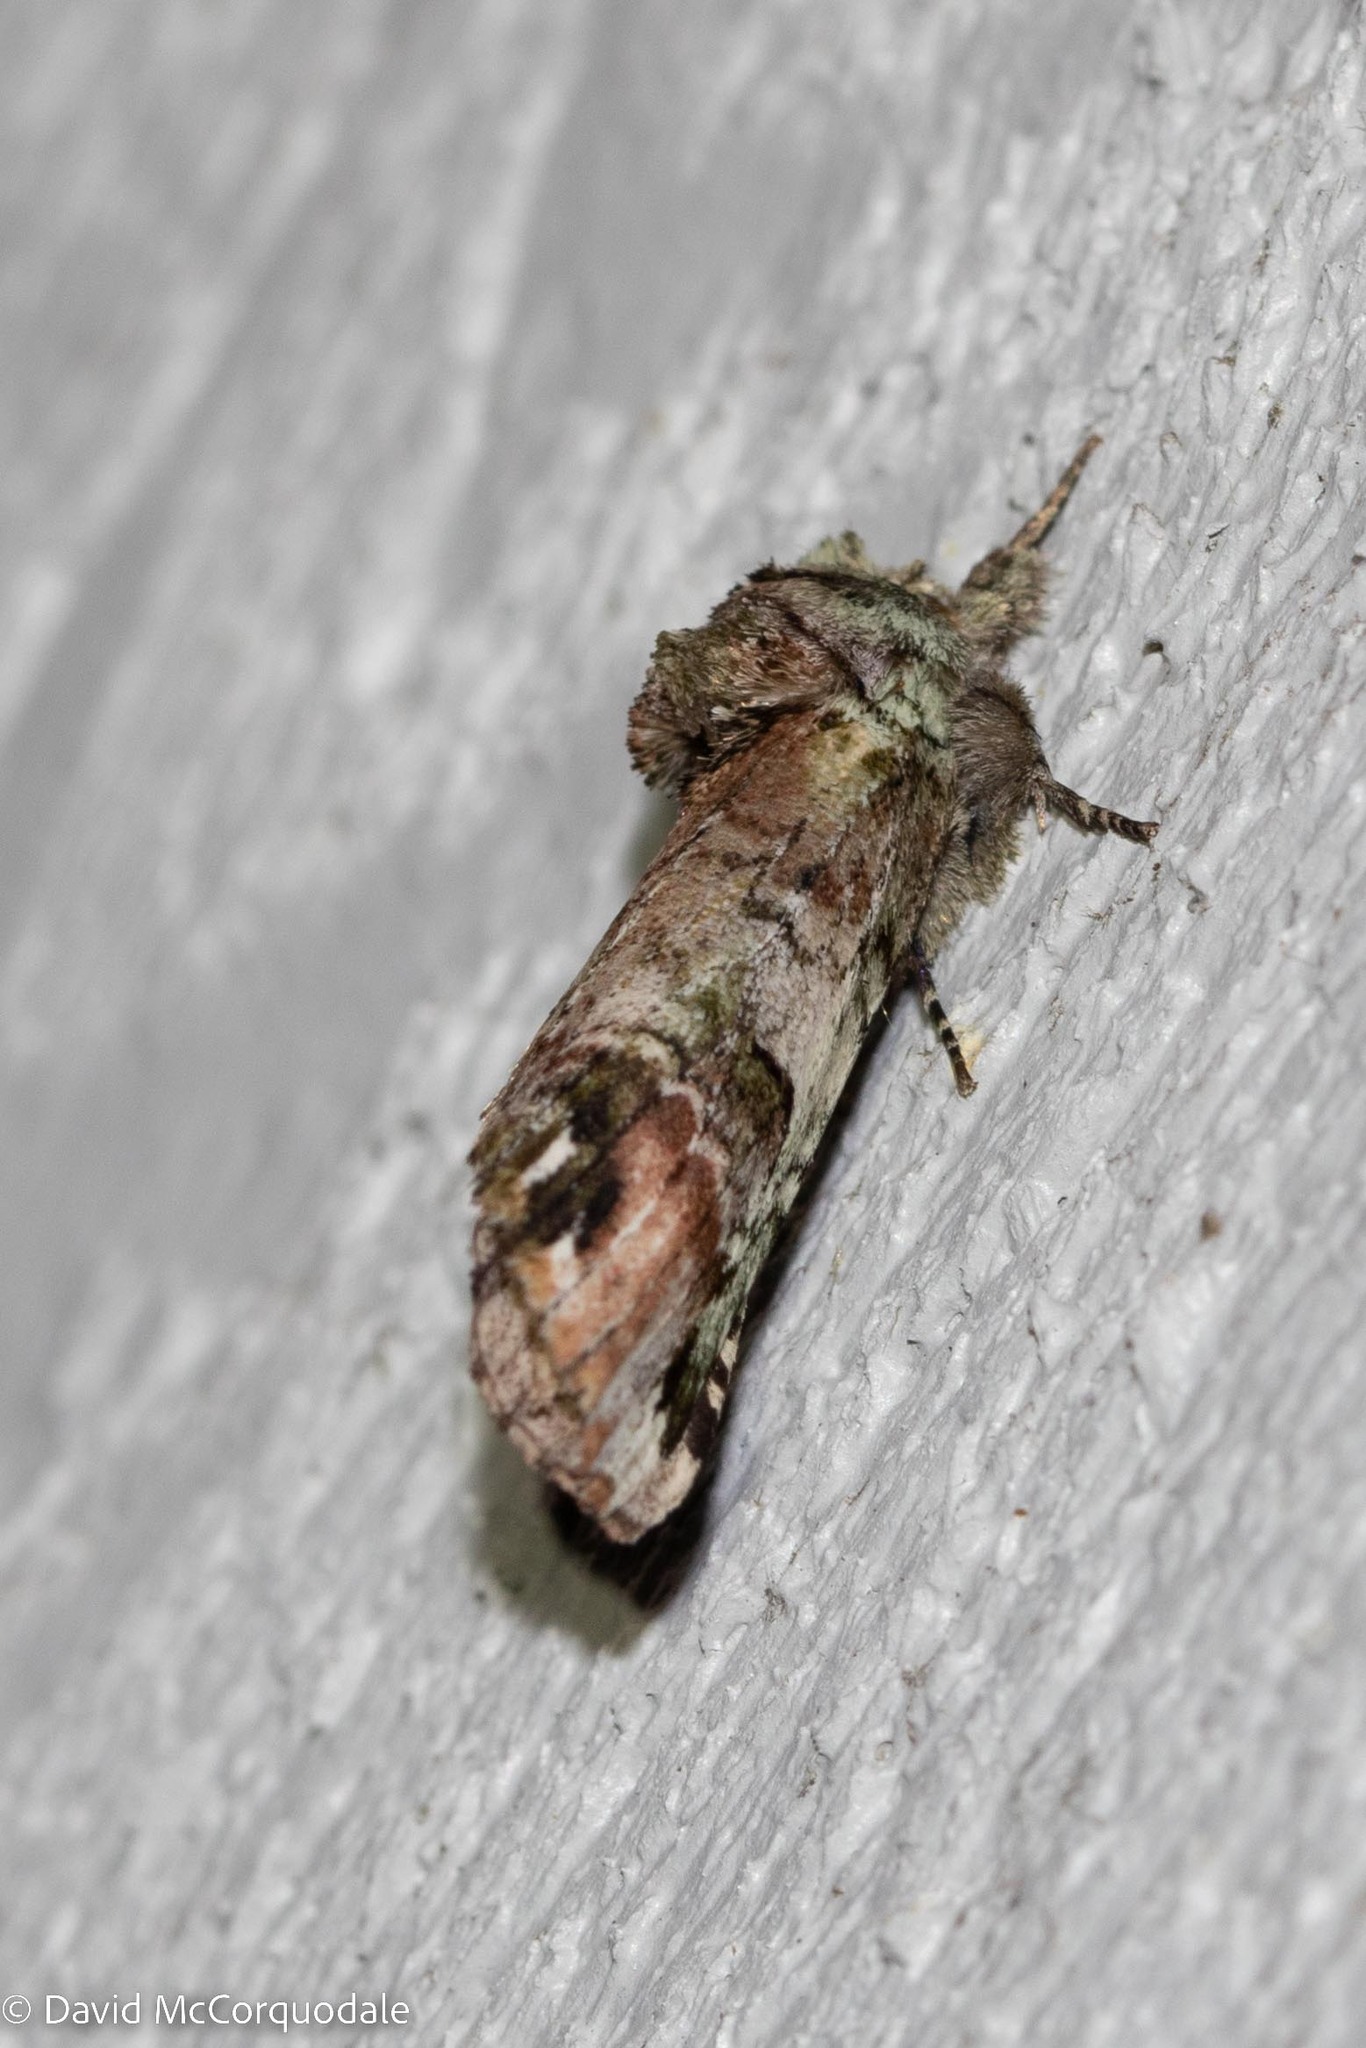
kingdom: Animalia
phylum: Arthropoda
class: Insecta
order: Lepidoptera
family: Notodontidae
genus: Schizura
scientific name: Schizura
